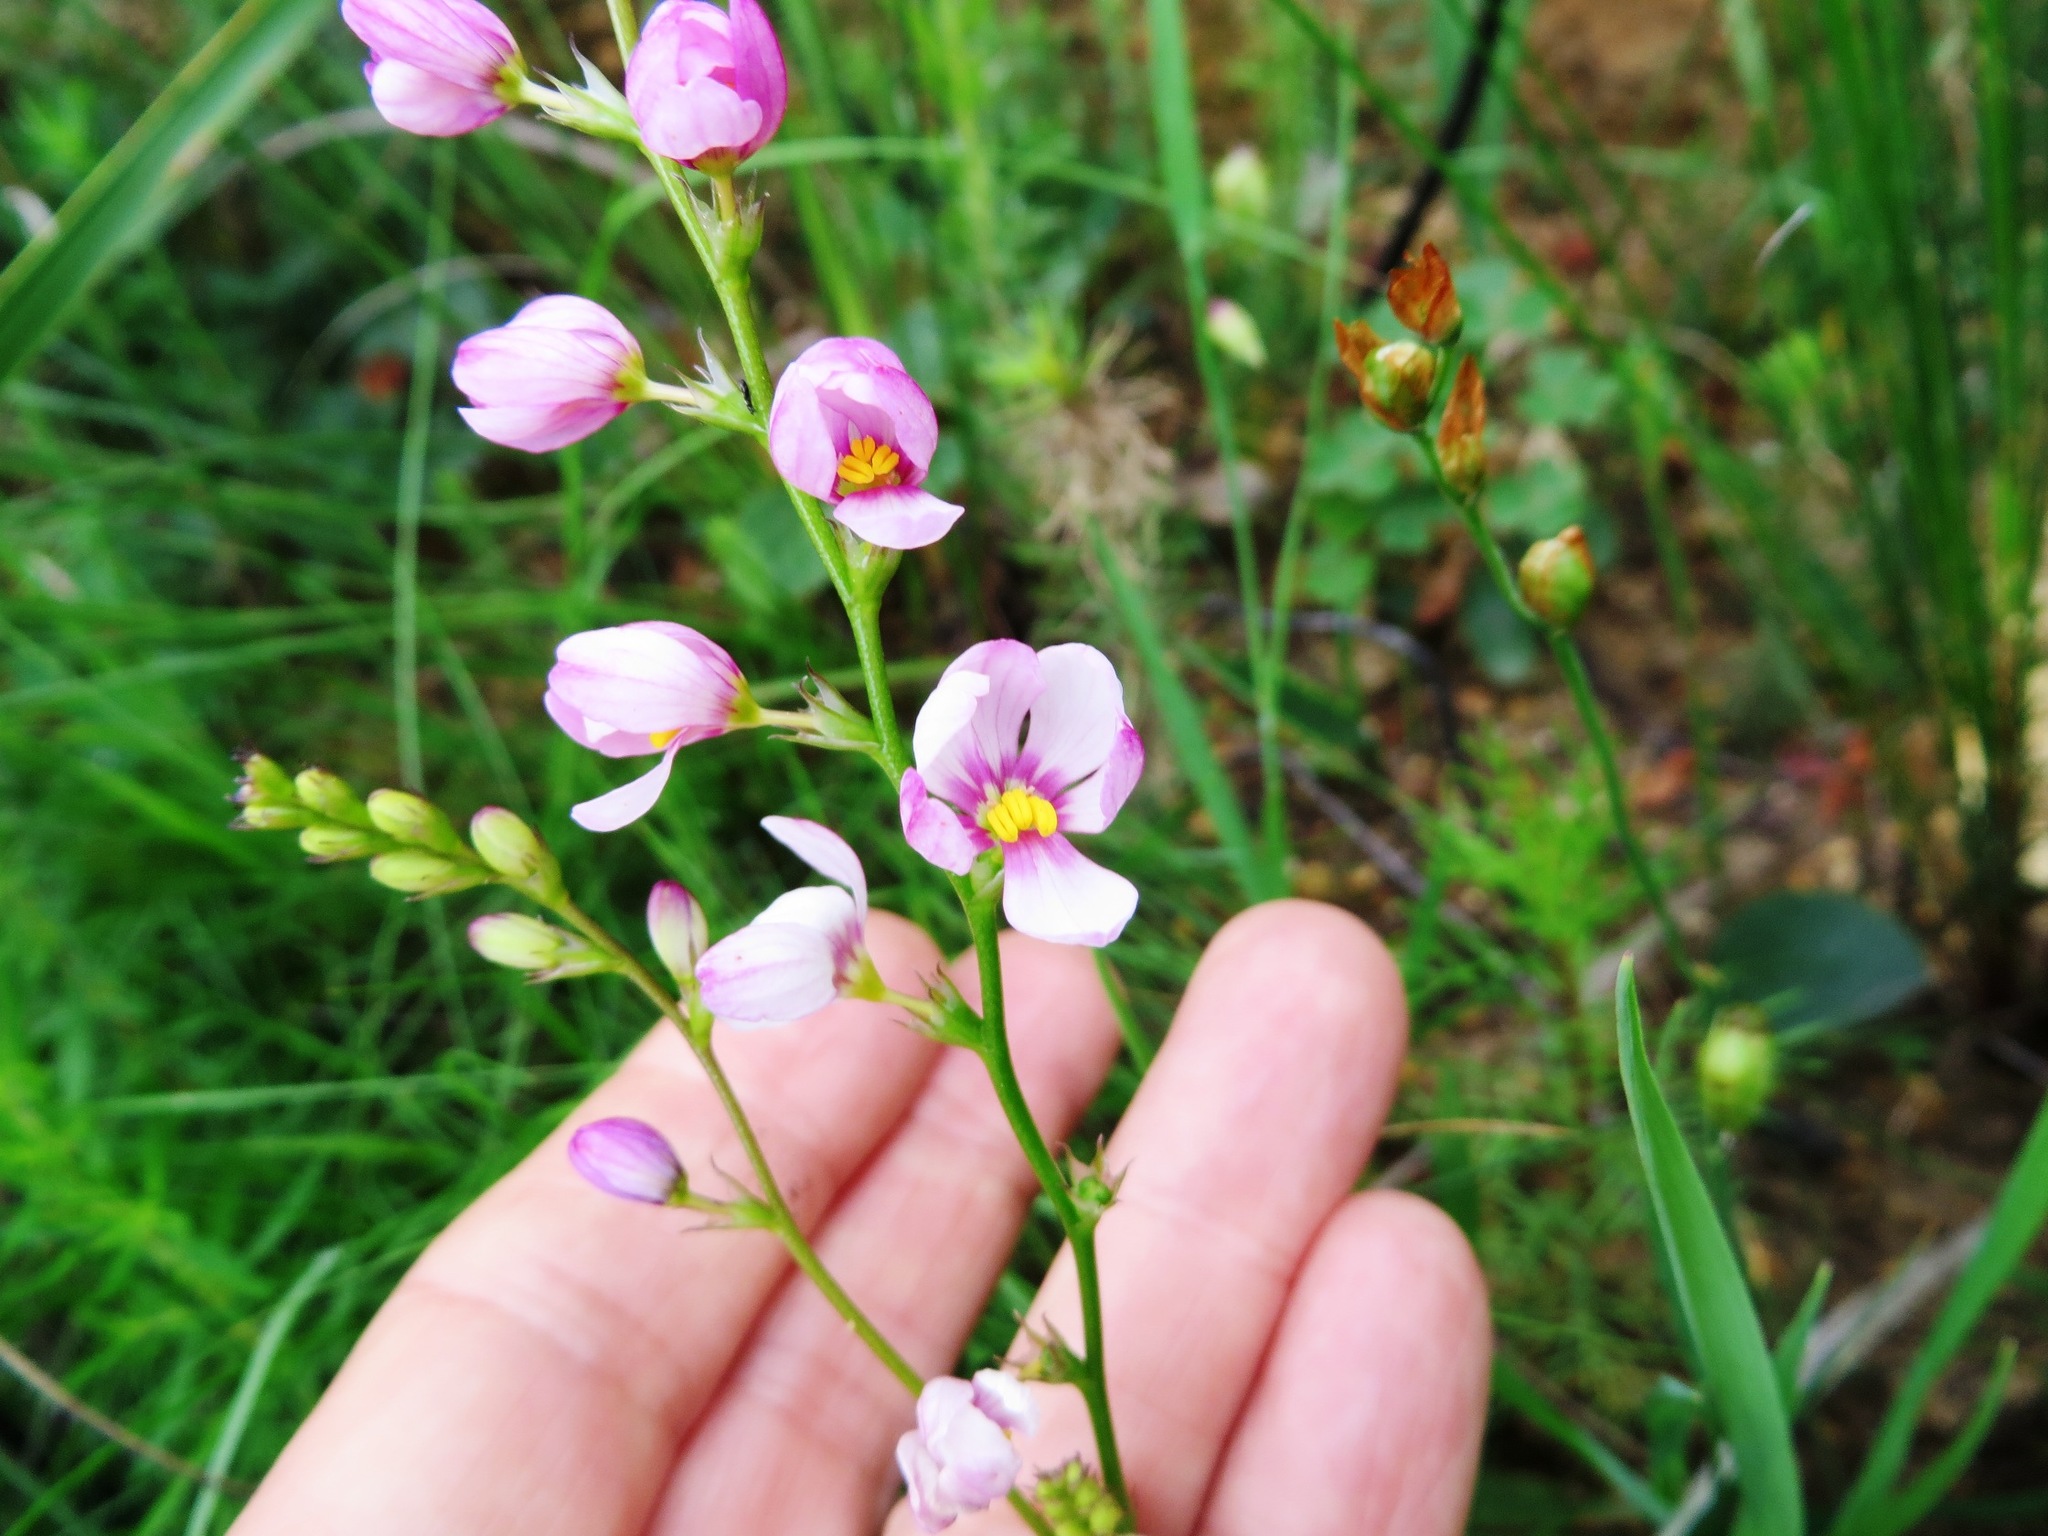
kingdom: Plantae
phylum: Tracheophyta
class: Liliopsida
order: Asparagales
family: Iridaceae
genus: Ixia
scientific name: Ixia scillaris
